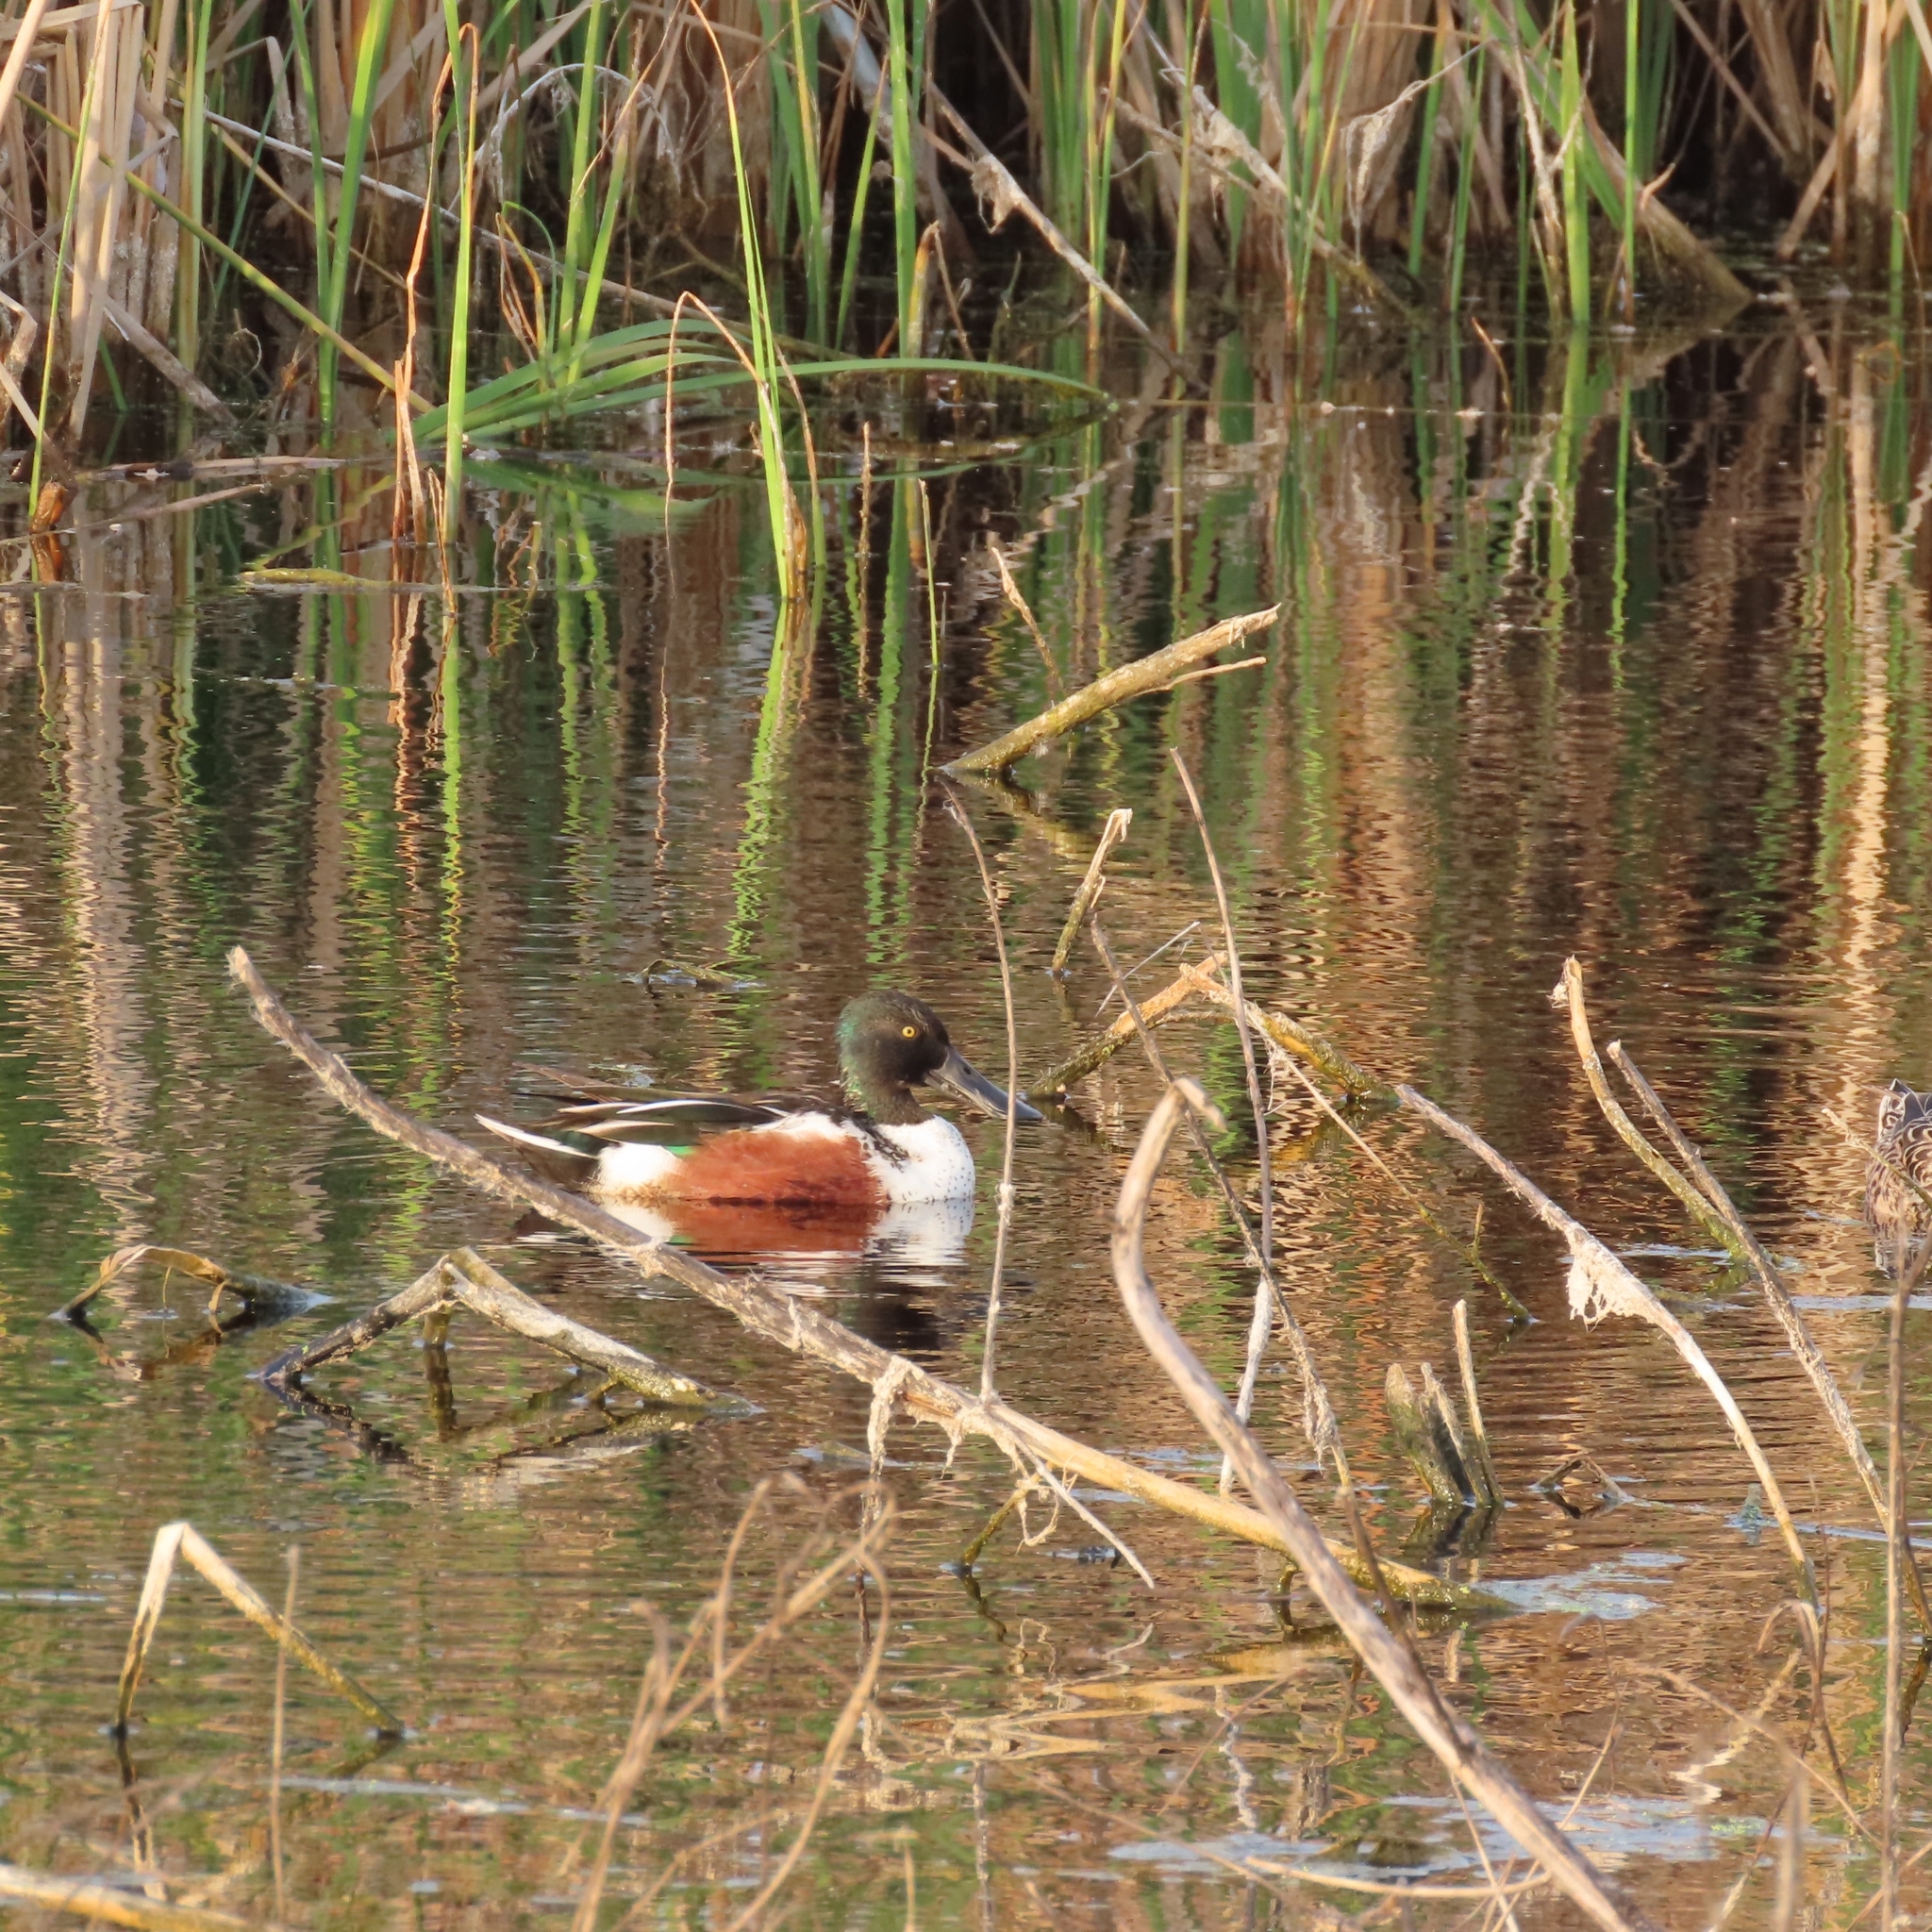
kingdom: Animalia
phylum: Chordata
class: Aves
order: Anseriformes
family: Anatidae
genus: Spatula
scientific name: Spatula clypeata
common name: Northern shoveler
